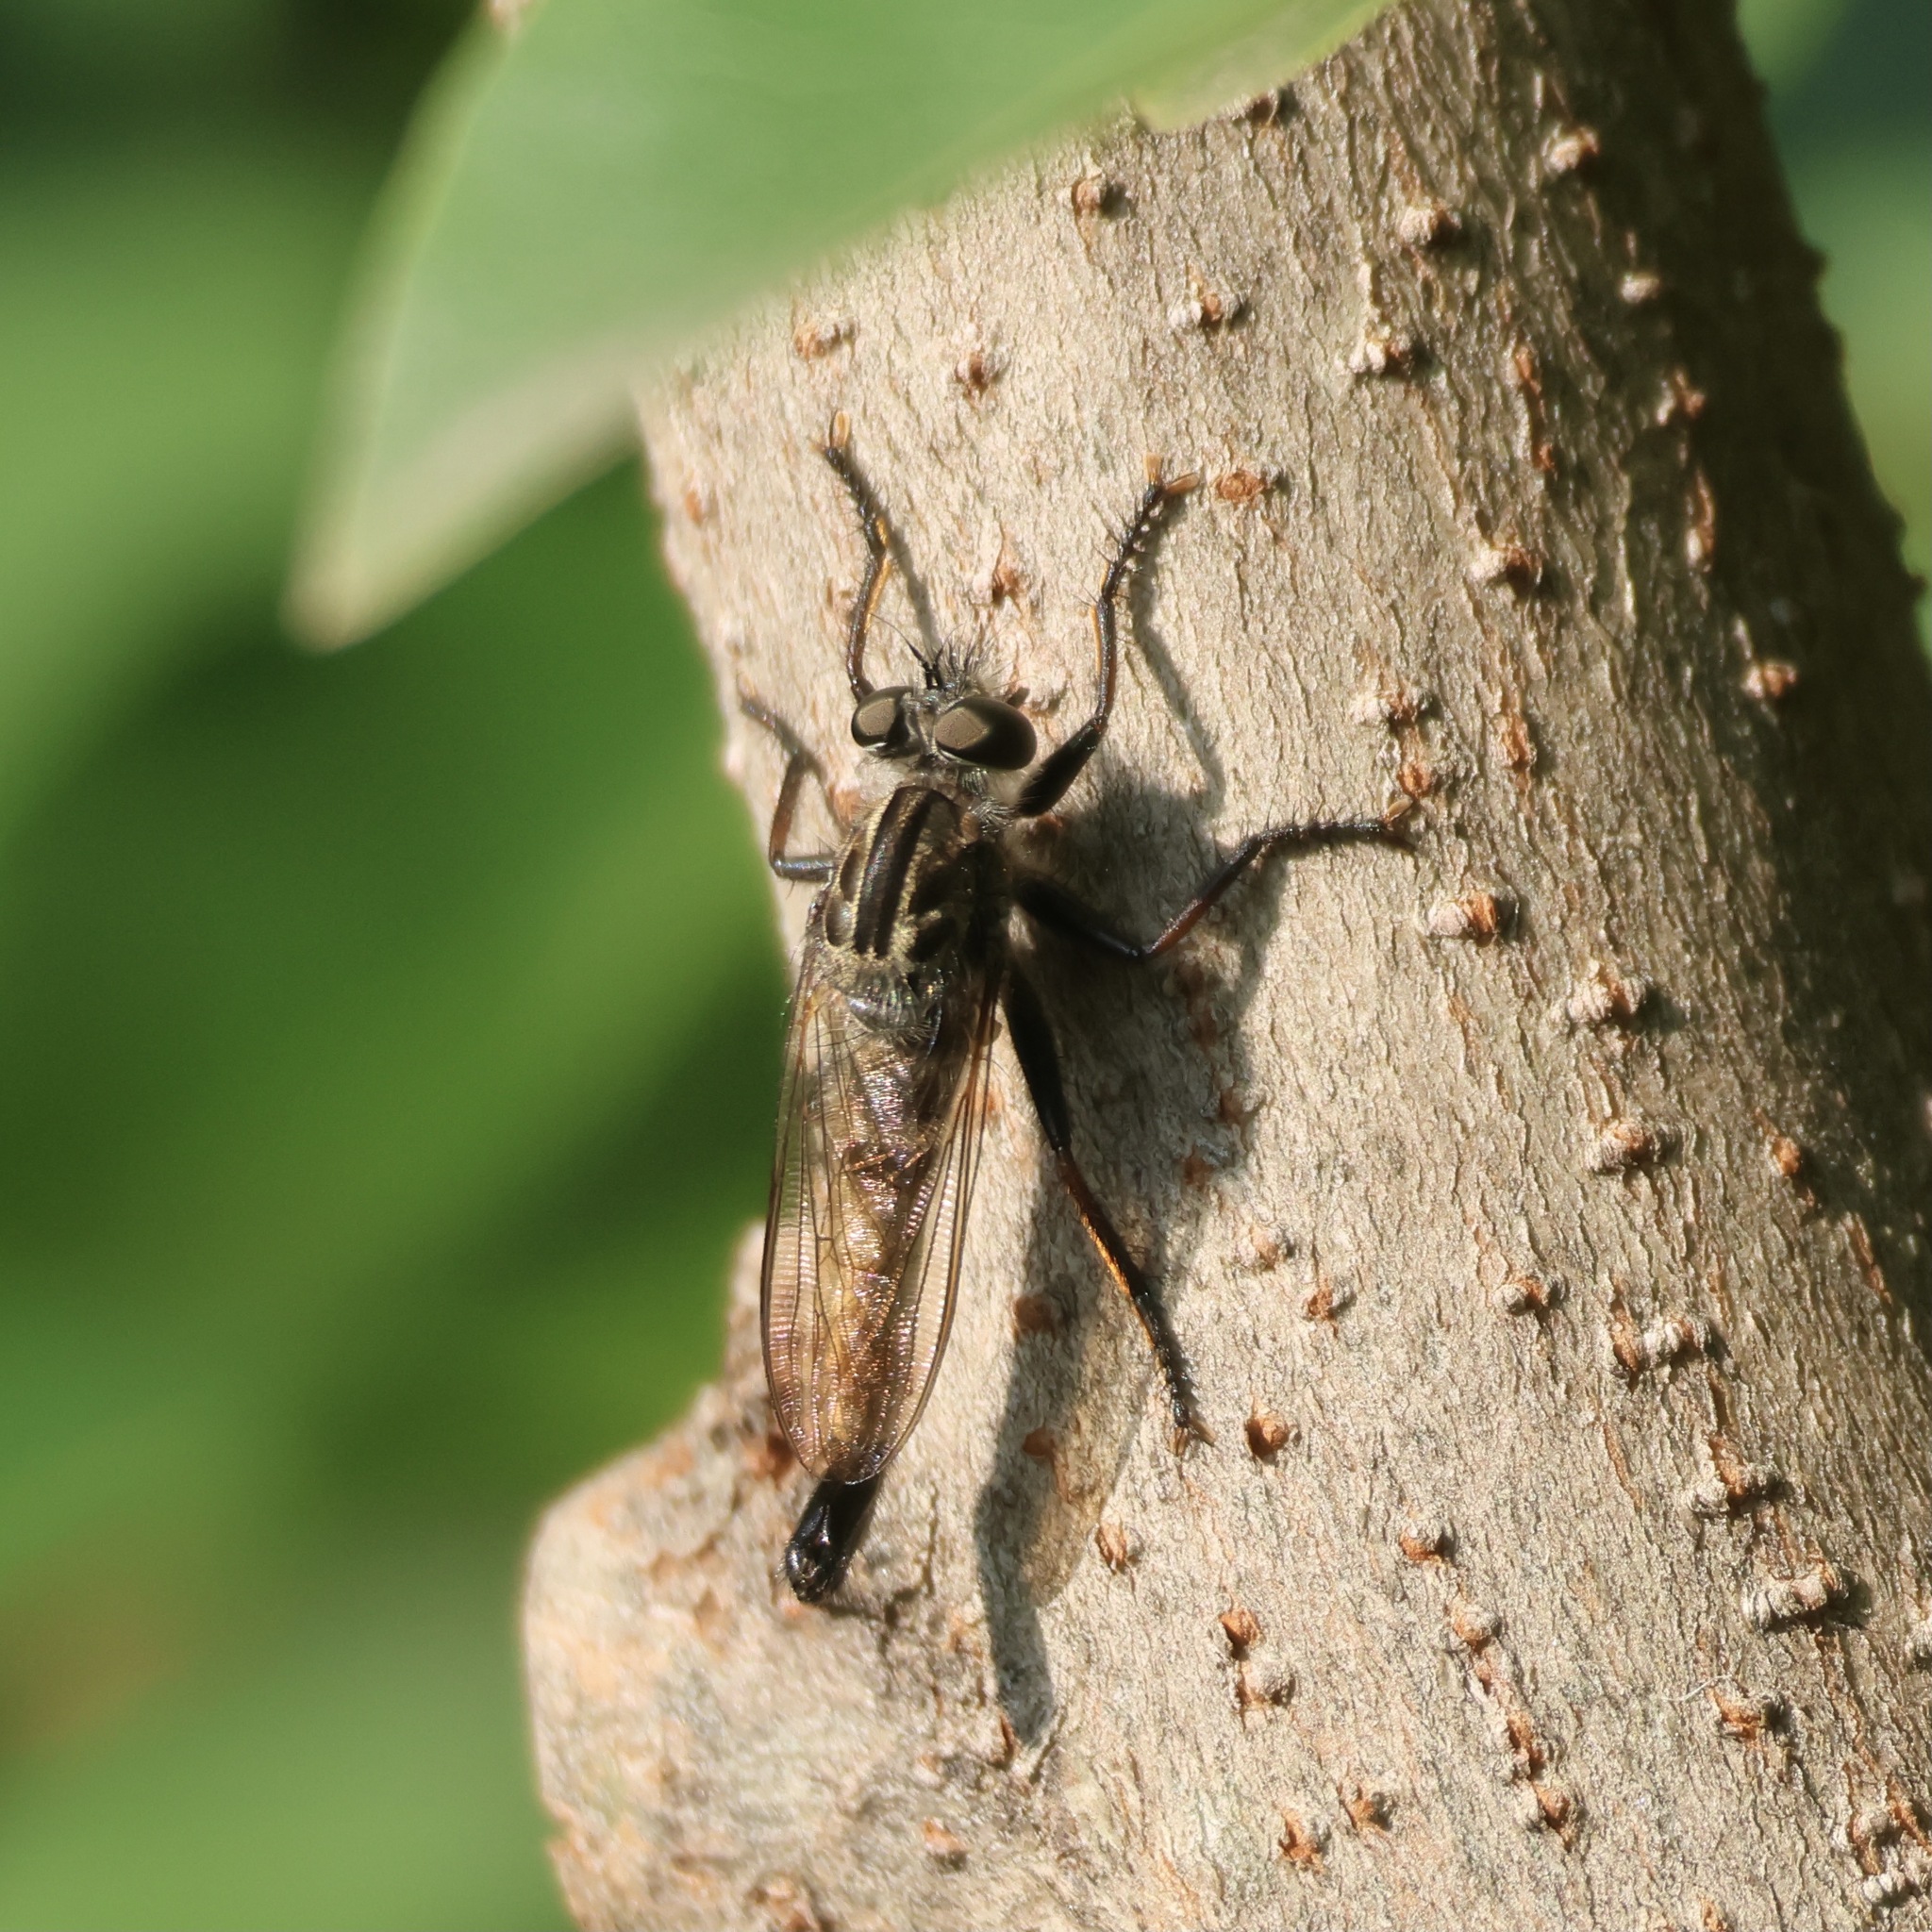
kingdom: Animalia
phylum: Arthropoda
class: Insecta
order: Diptera
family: Asilidae
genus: Efferia
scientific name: Efferia aestuans
